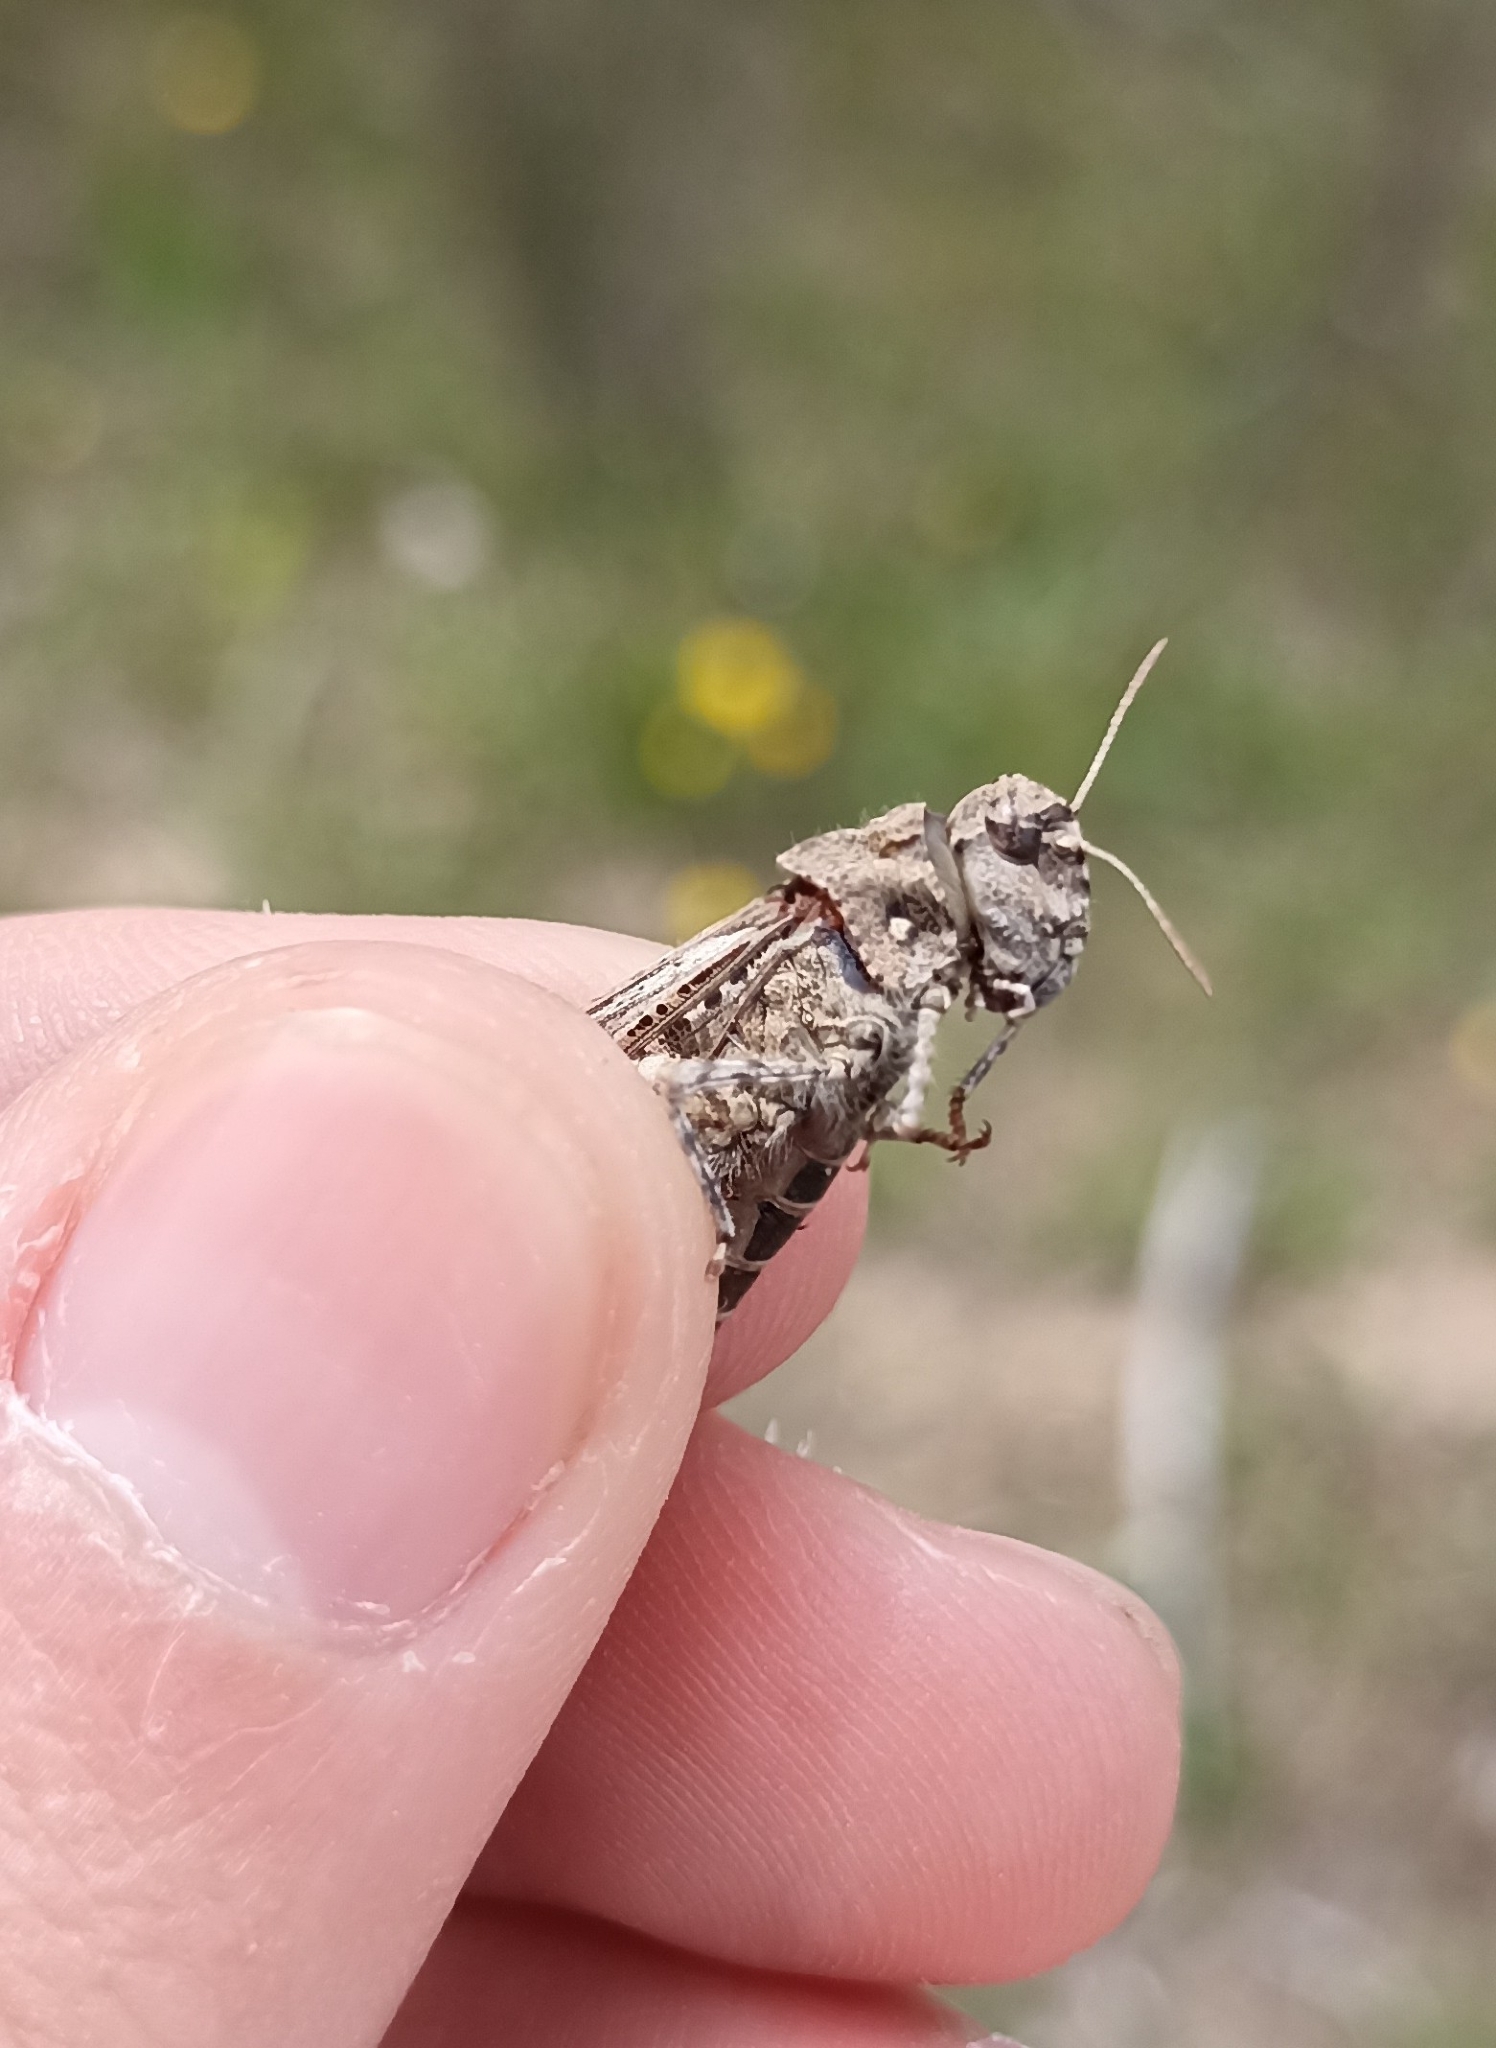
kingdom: Animalia
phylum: Arthropoda
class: Insecta
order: Orthoptera
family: Acrididae
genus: Acrotylus
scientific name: Acrotylus insubricus
